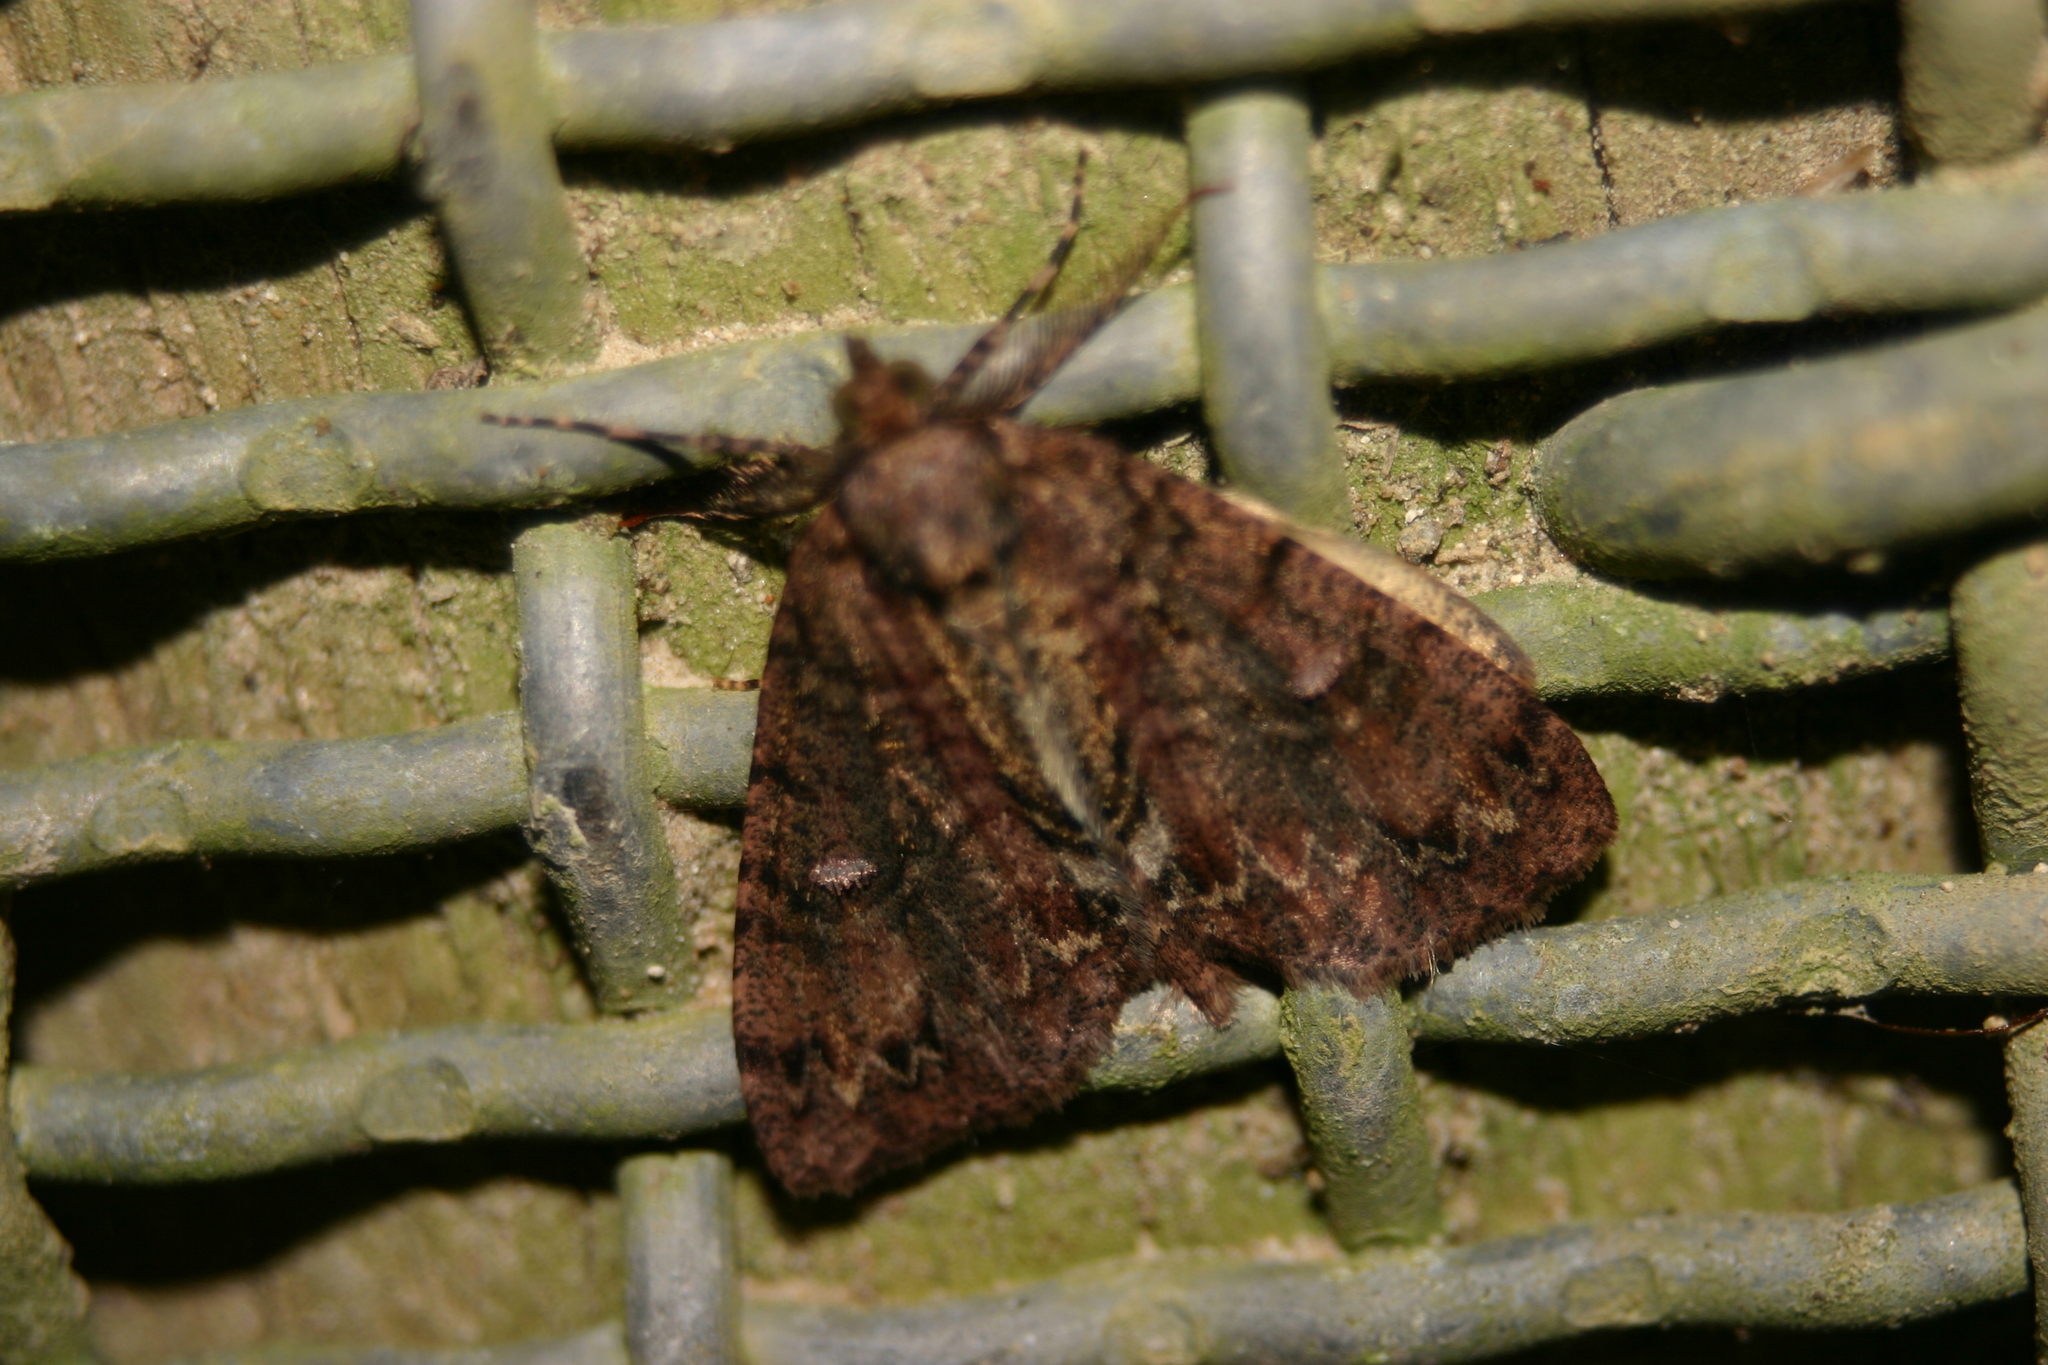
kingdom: Animalia
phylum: Arthropoda
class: Insecta
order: Lepidoptera
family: Geometridae
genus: Pseudocoremia
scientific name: Pseudocoremia suavis
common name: Common forest looper
